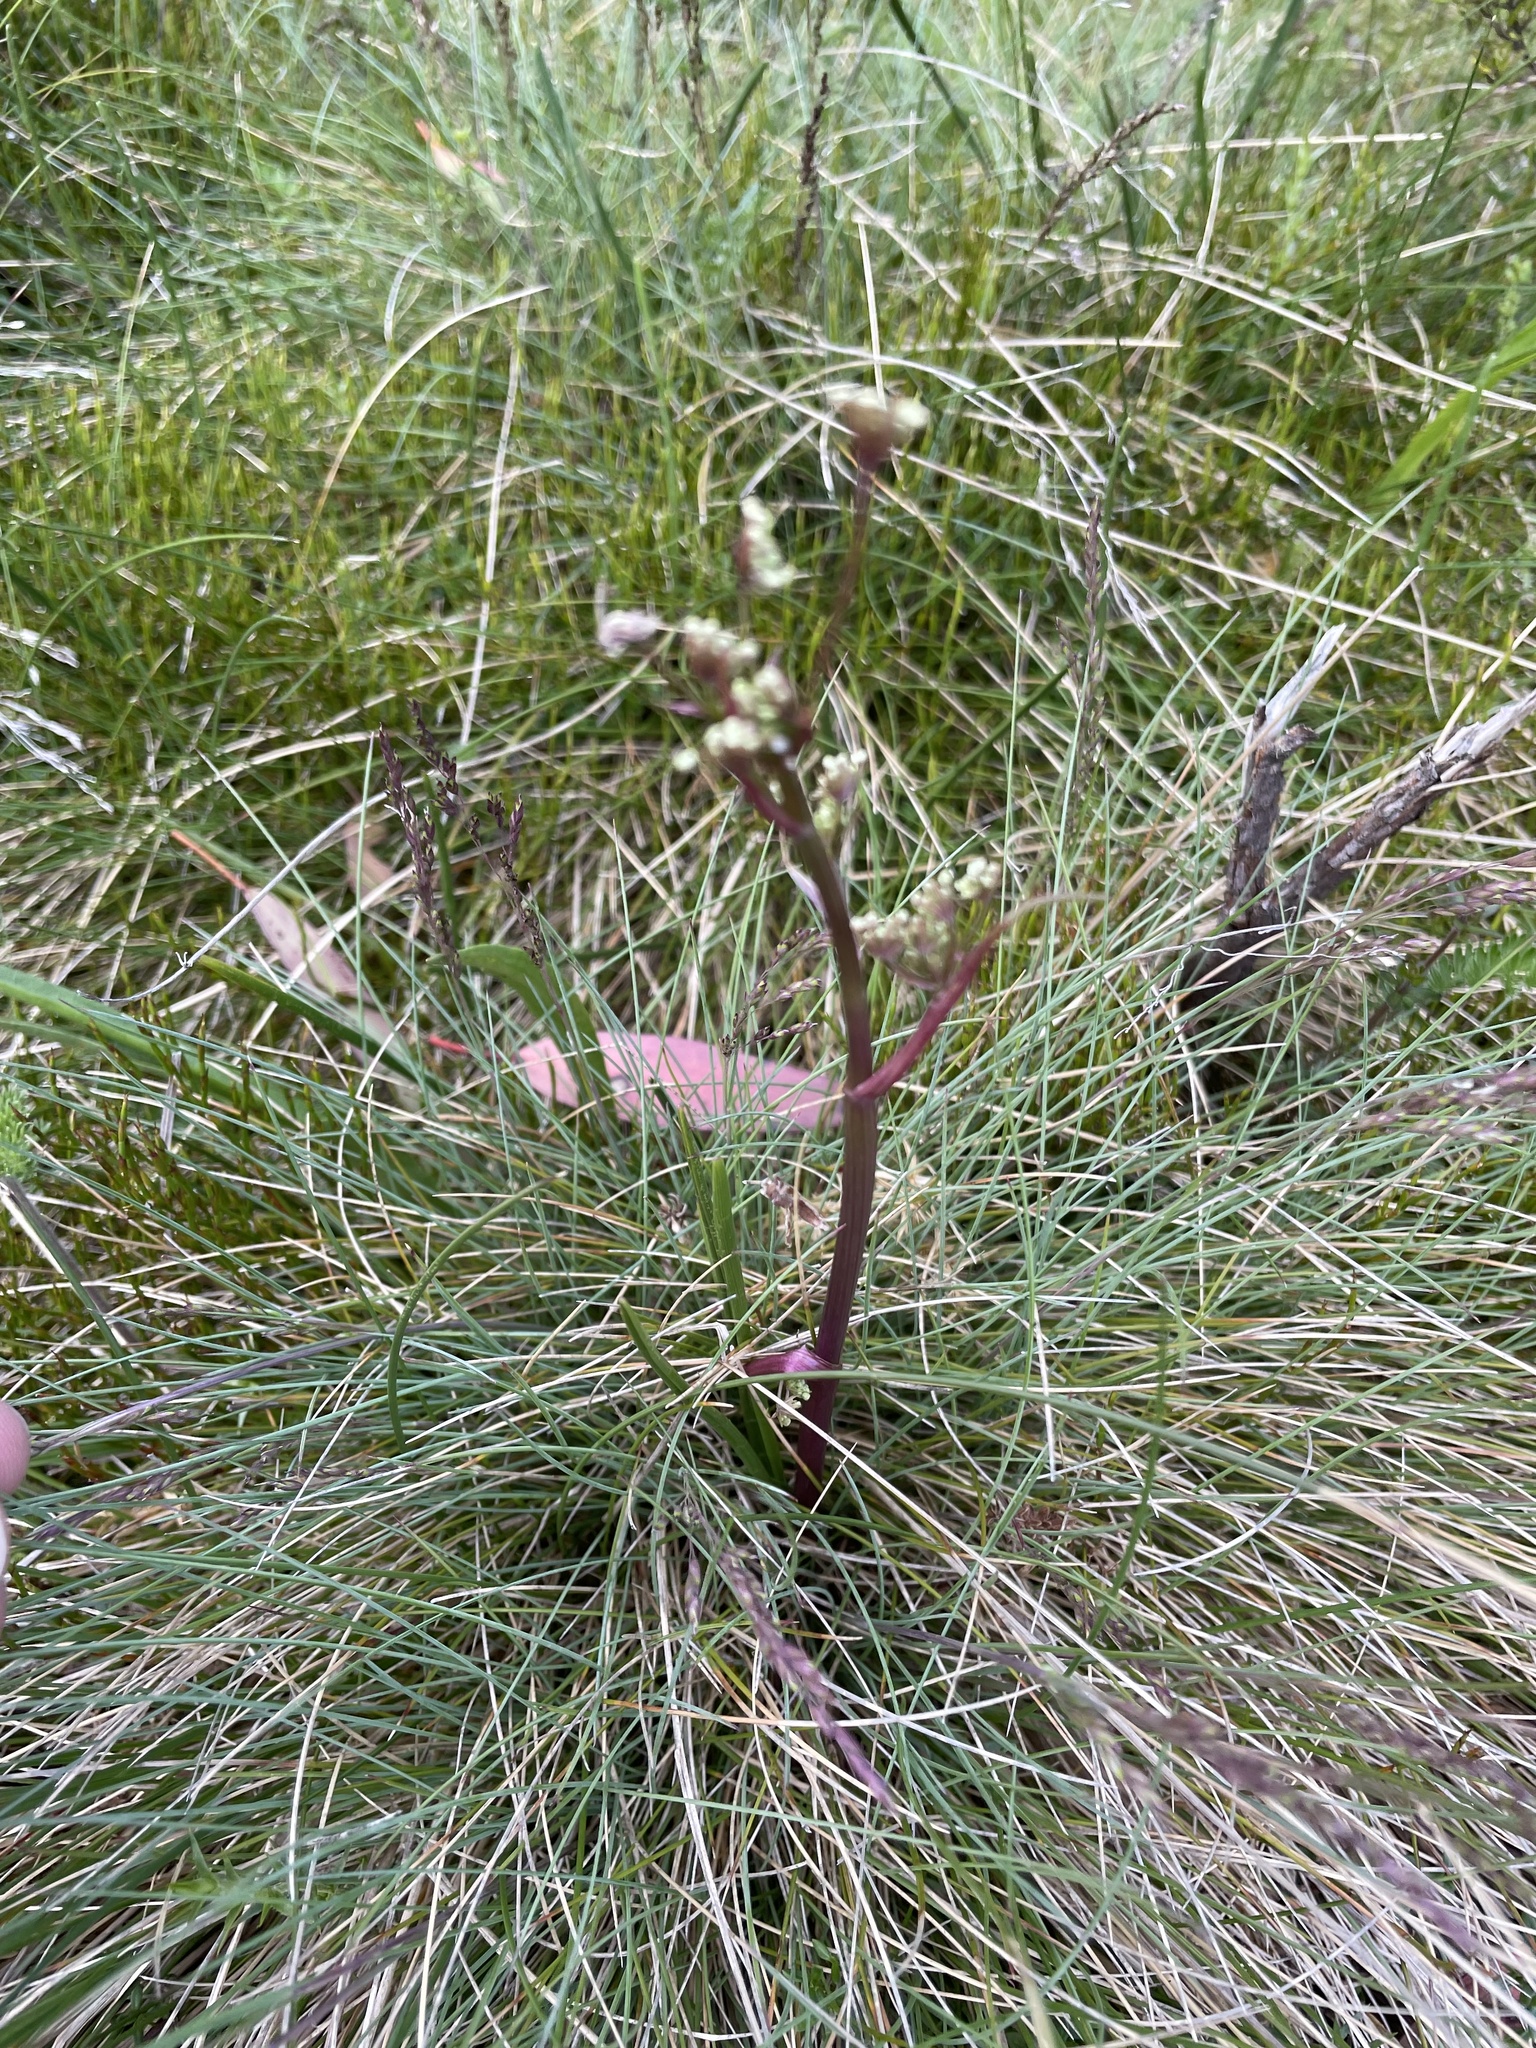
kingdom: Plantae
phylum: Tracheophyta
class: Magnoliopsida
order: Apiales
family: Apiaceae
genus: Aciphylla
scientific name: Aciphylla simplicifolia
